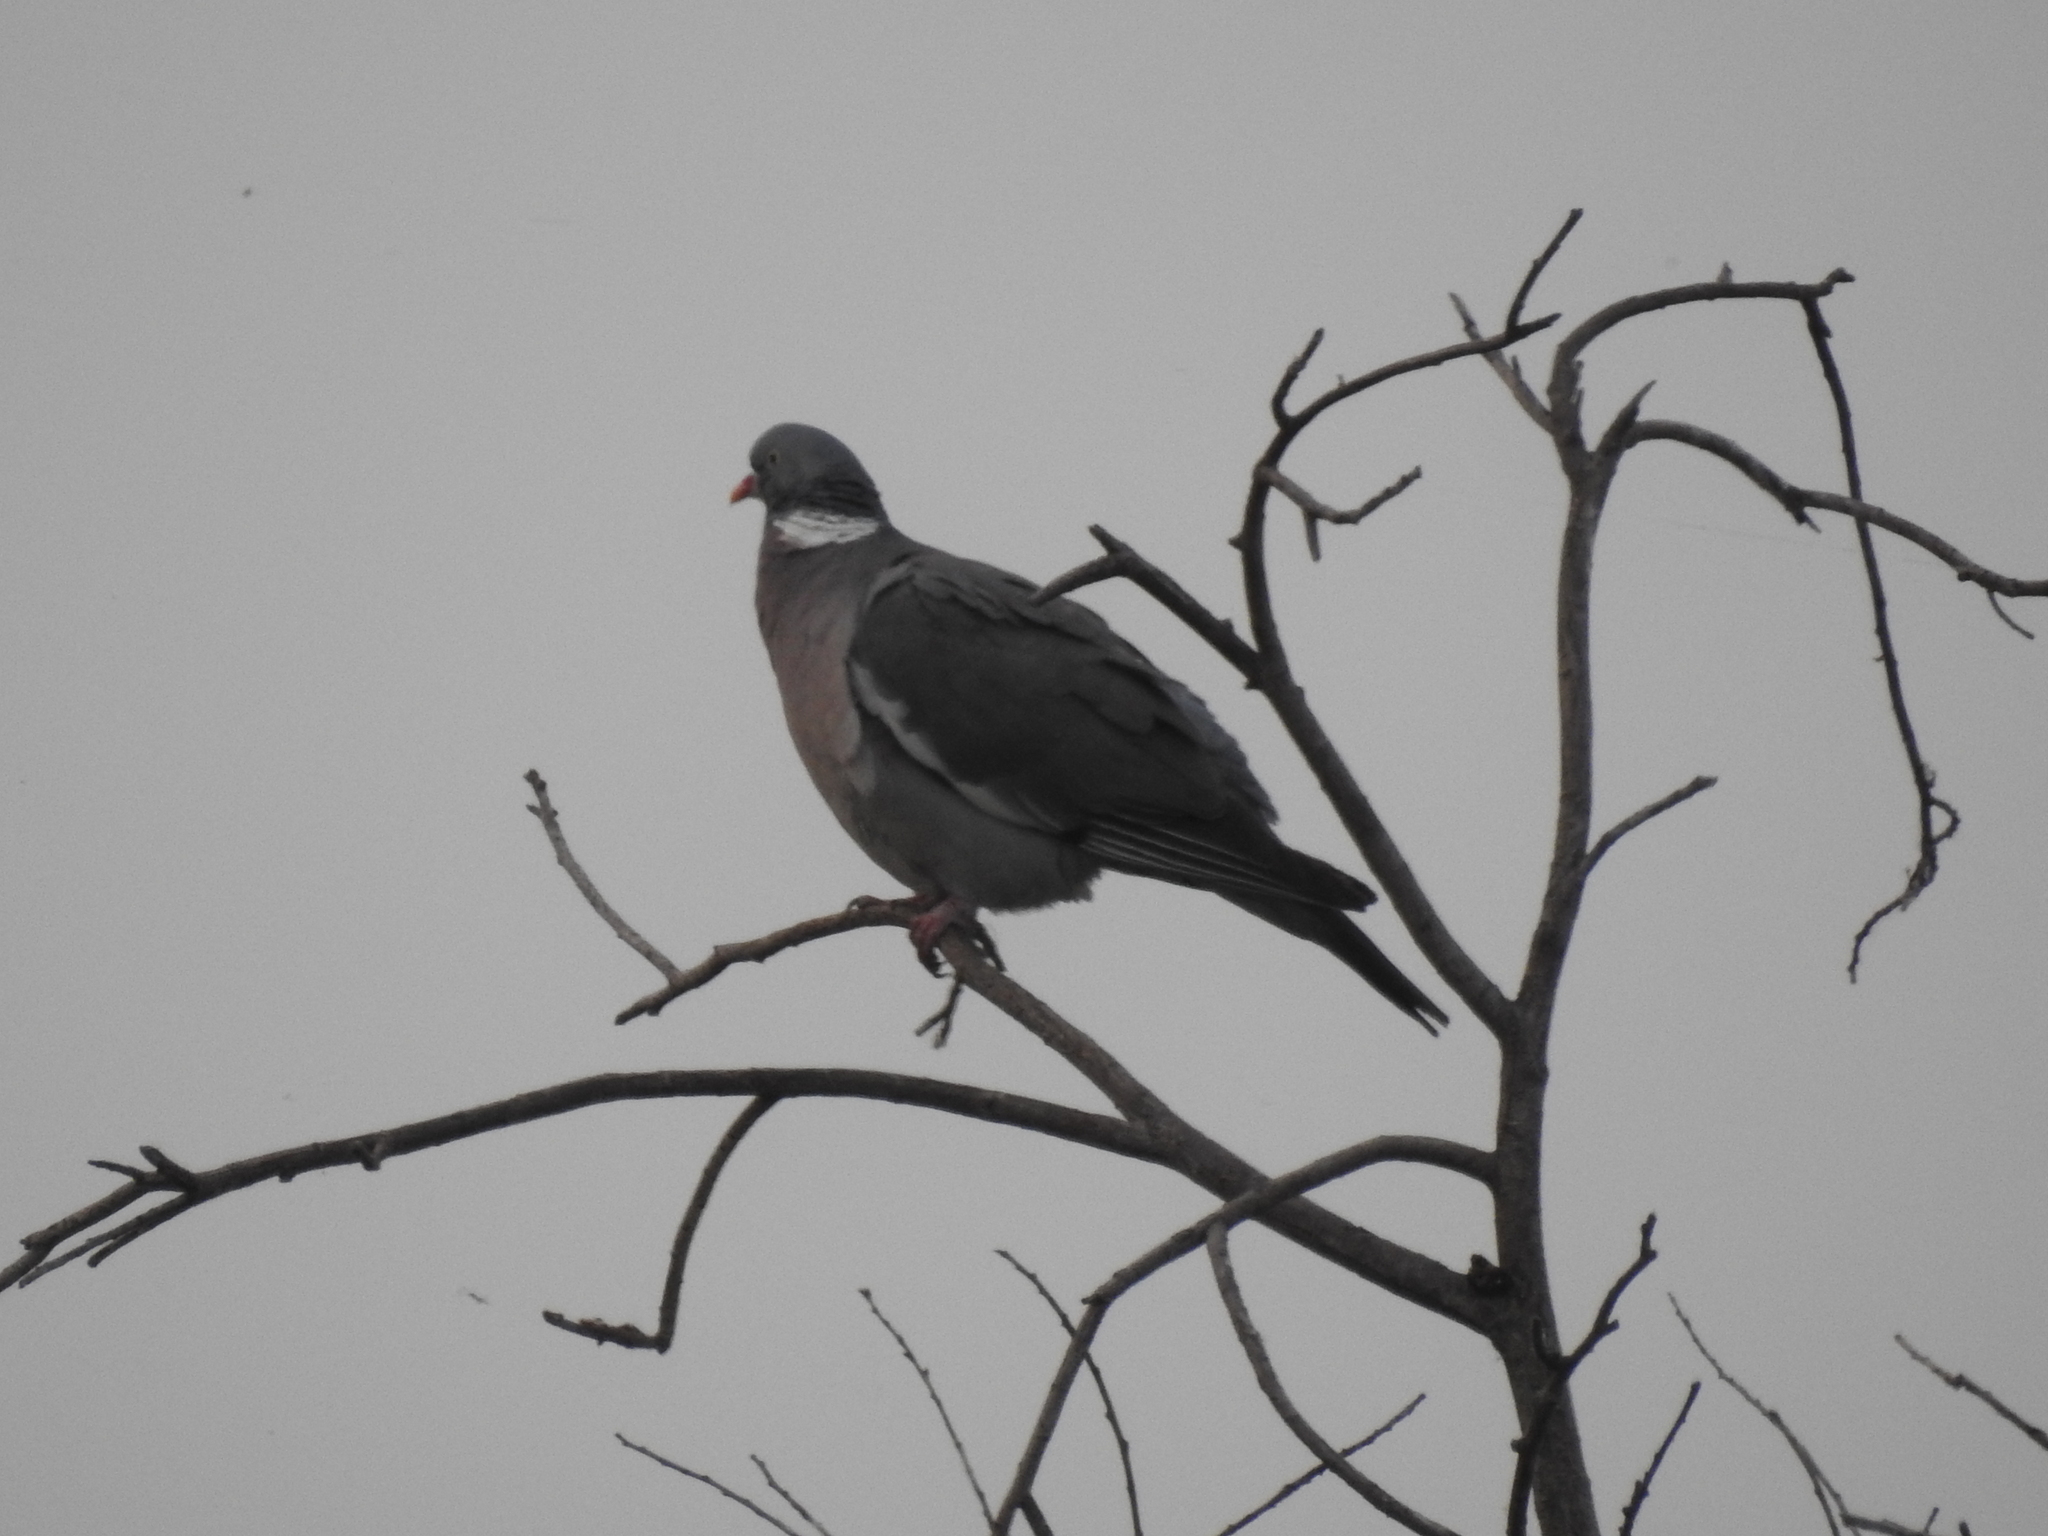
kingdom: Animalia
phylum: Chordata
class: Aves
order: Columbiformes
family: Columbidae
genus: Columba
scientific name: Columba palumbus
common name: Common wood pigeon
